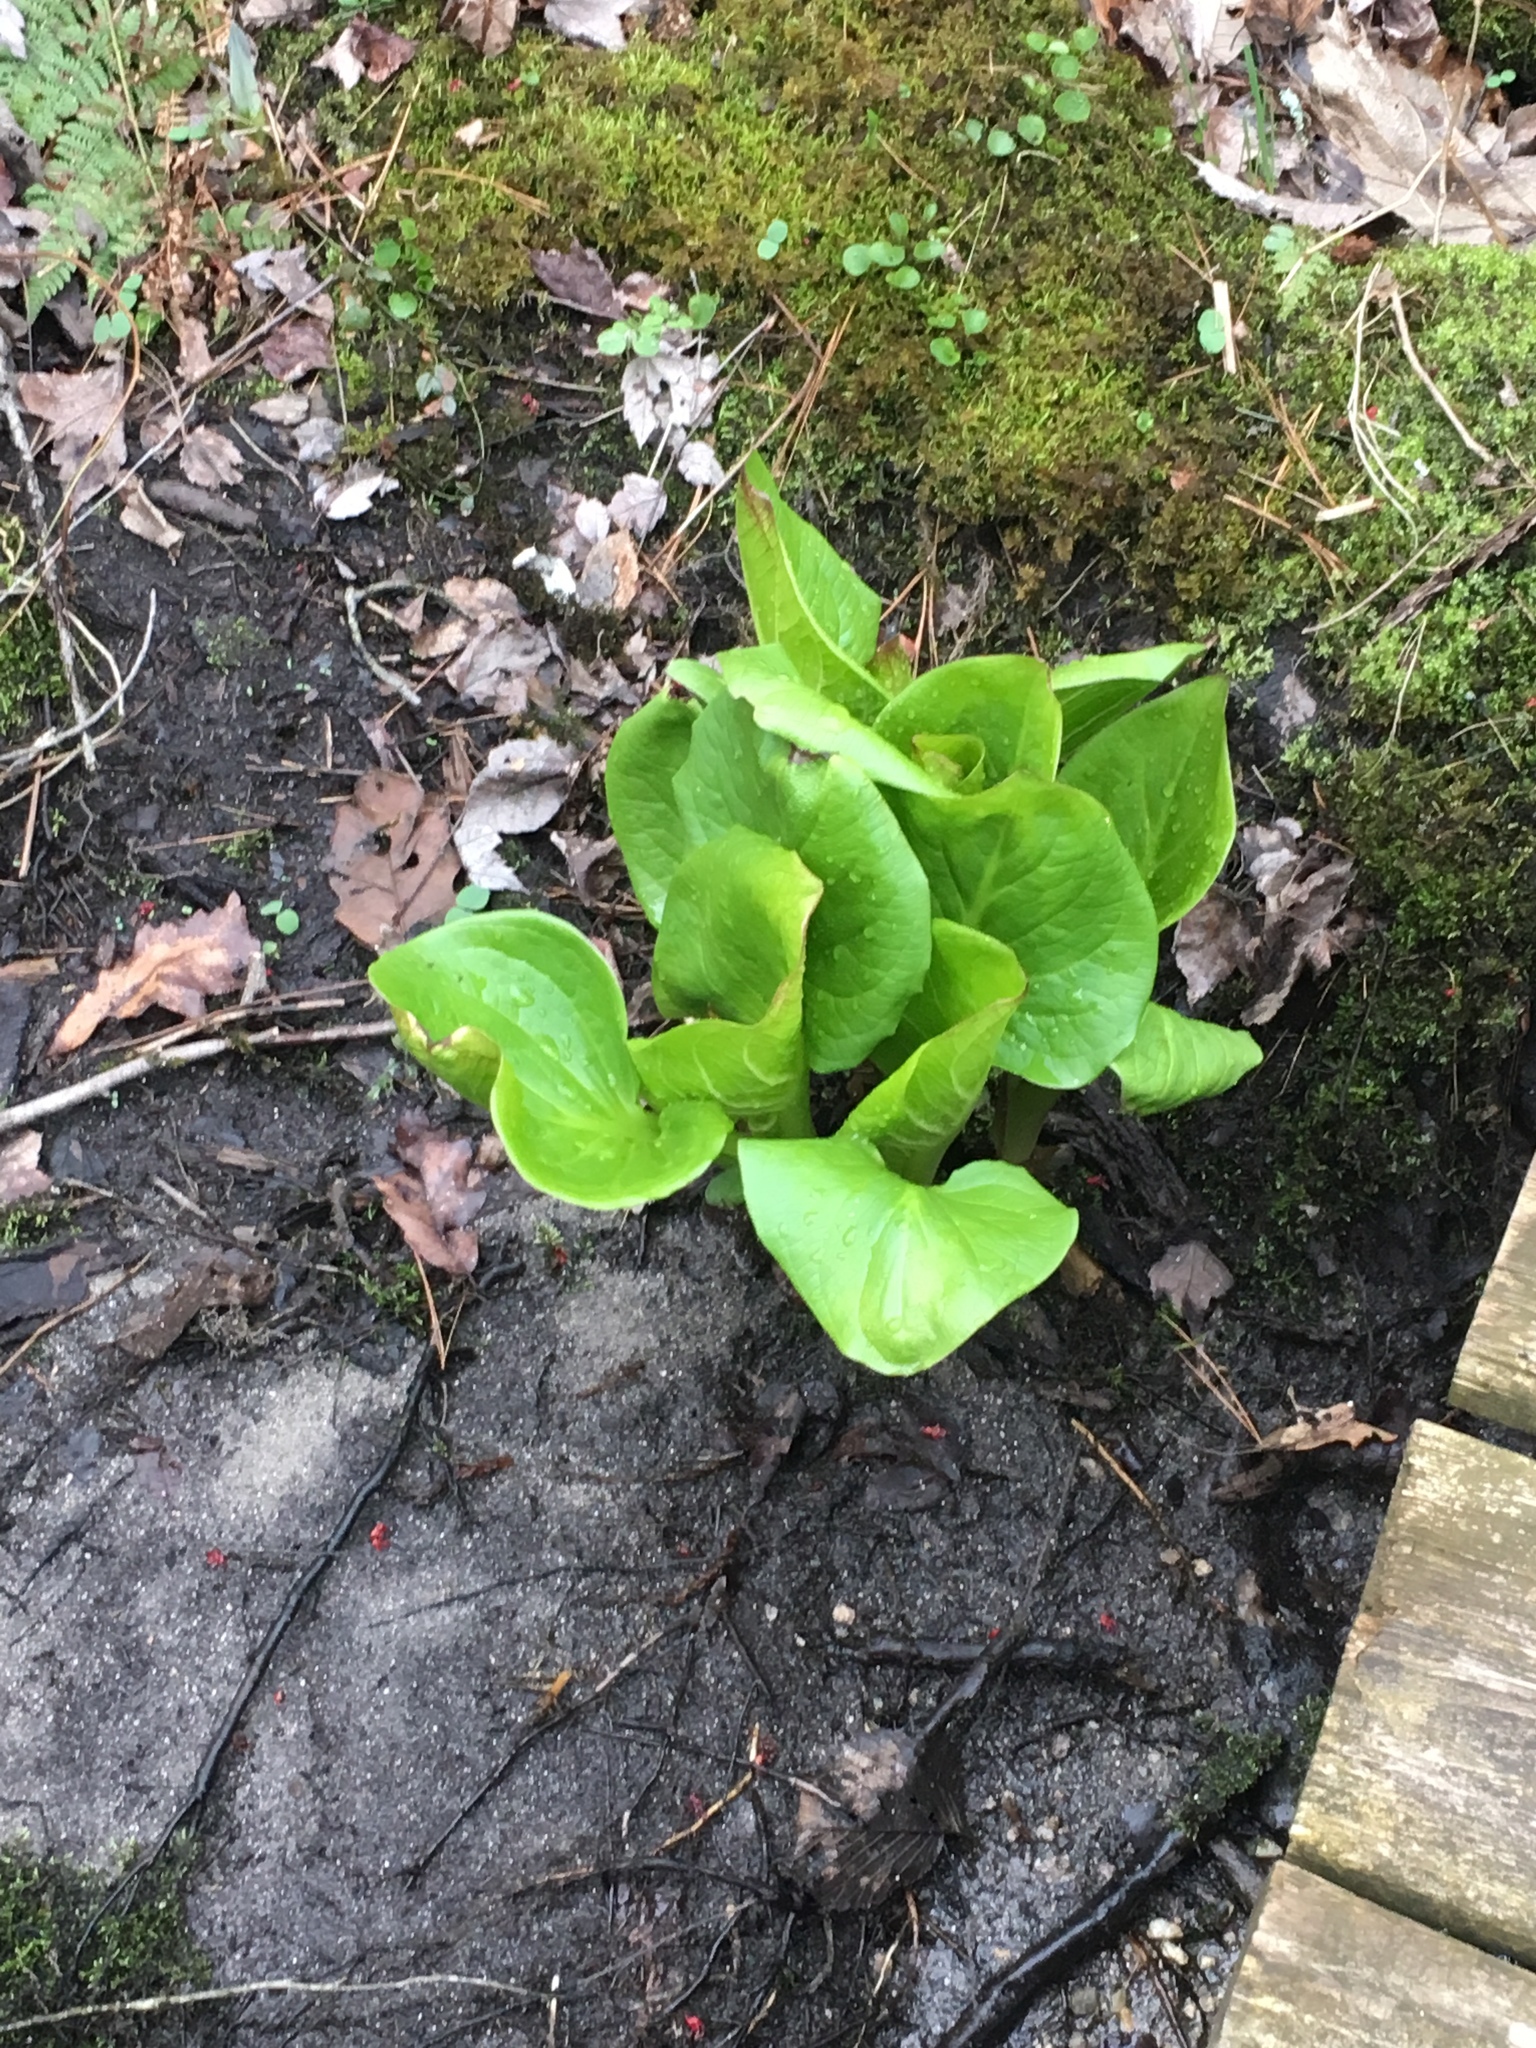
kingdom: Plantae
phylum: Tracheophyta
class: Liliopsida
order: Alismatales
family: Araceae
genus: Symplocarpus
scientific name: Symplocarpus foetidus
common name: Eastern skunk cabbage
